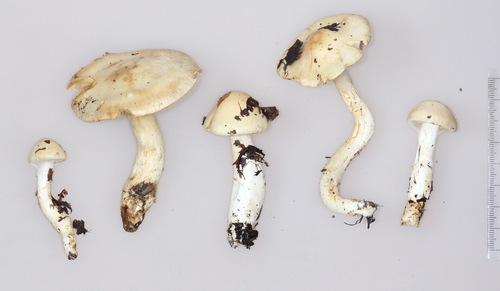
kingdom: Fungi
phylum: Basidiomycota
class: Agaricomycetes
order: Agaricales
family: Cortinariaceae
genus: Phlegmacium
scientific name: Phlegmacium argutum
